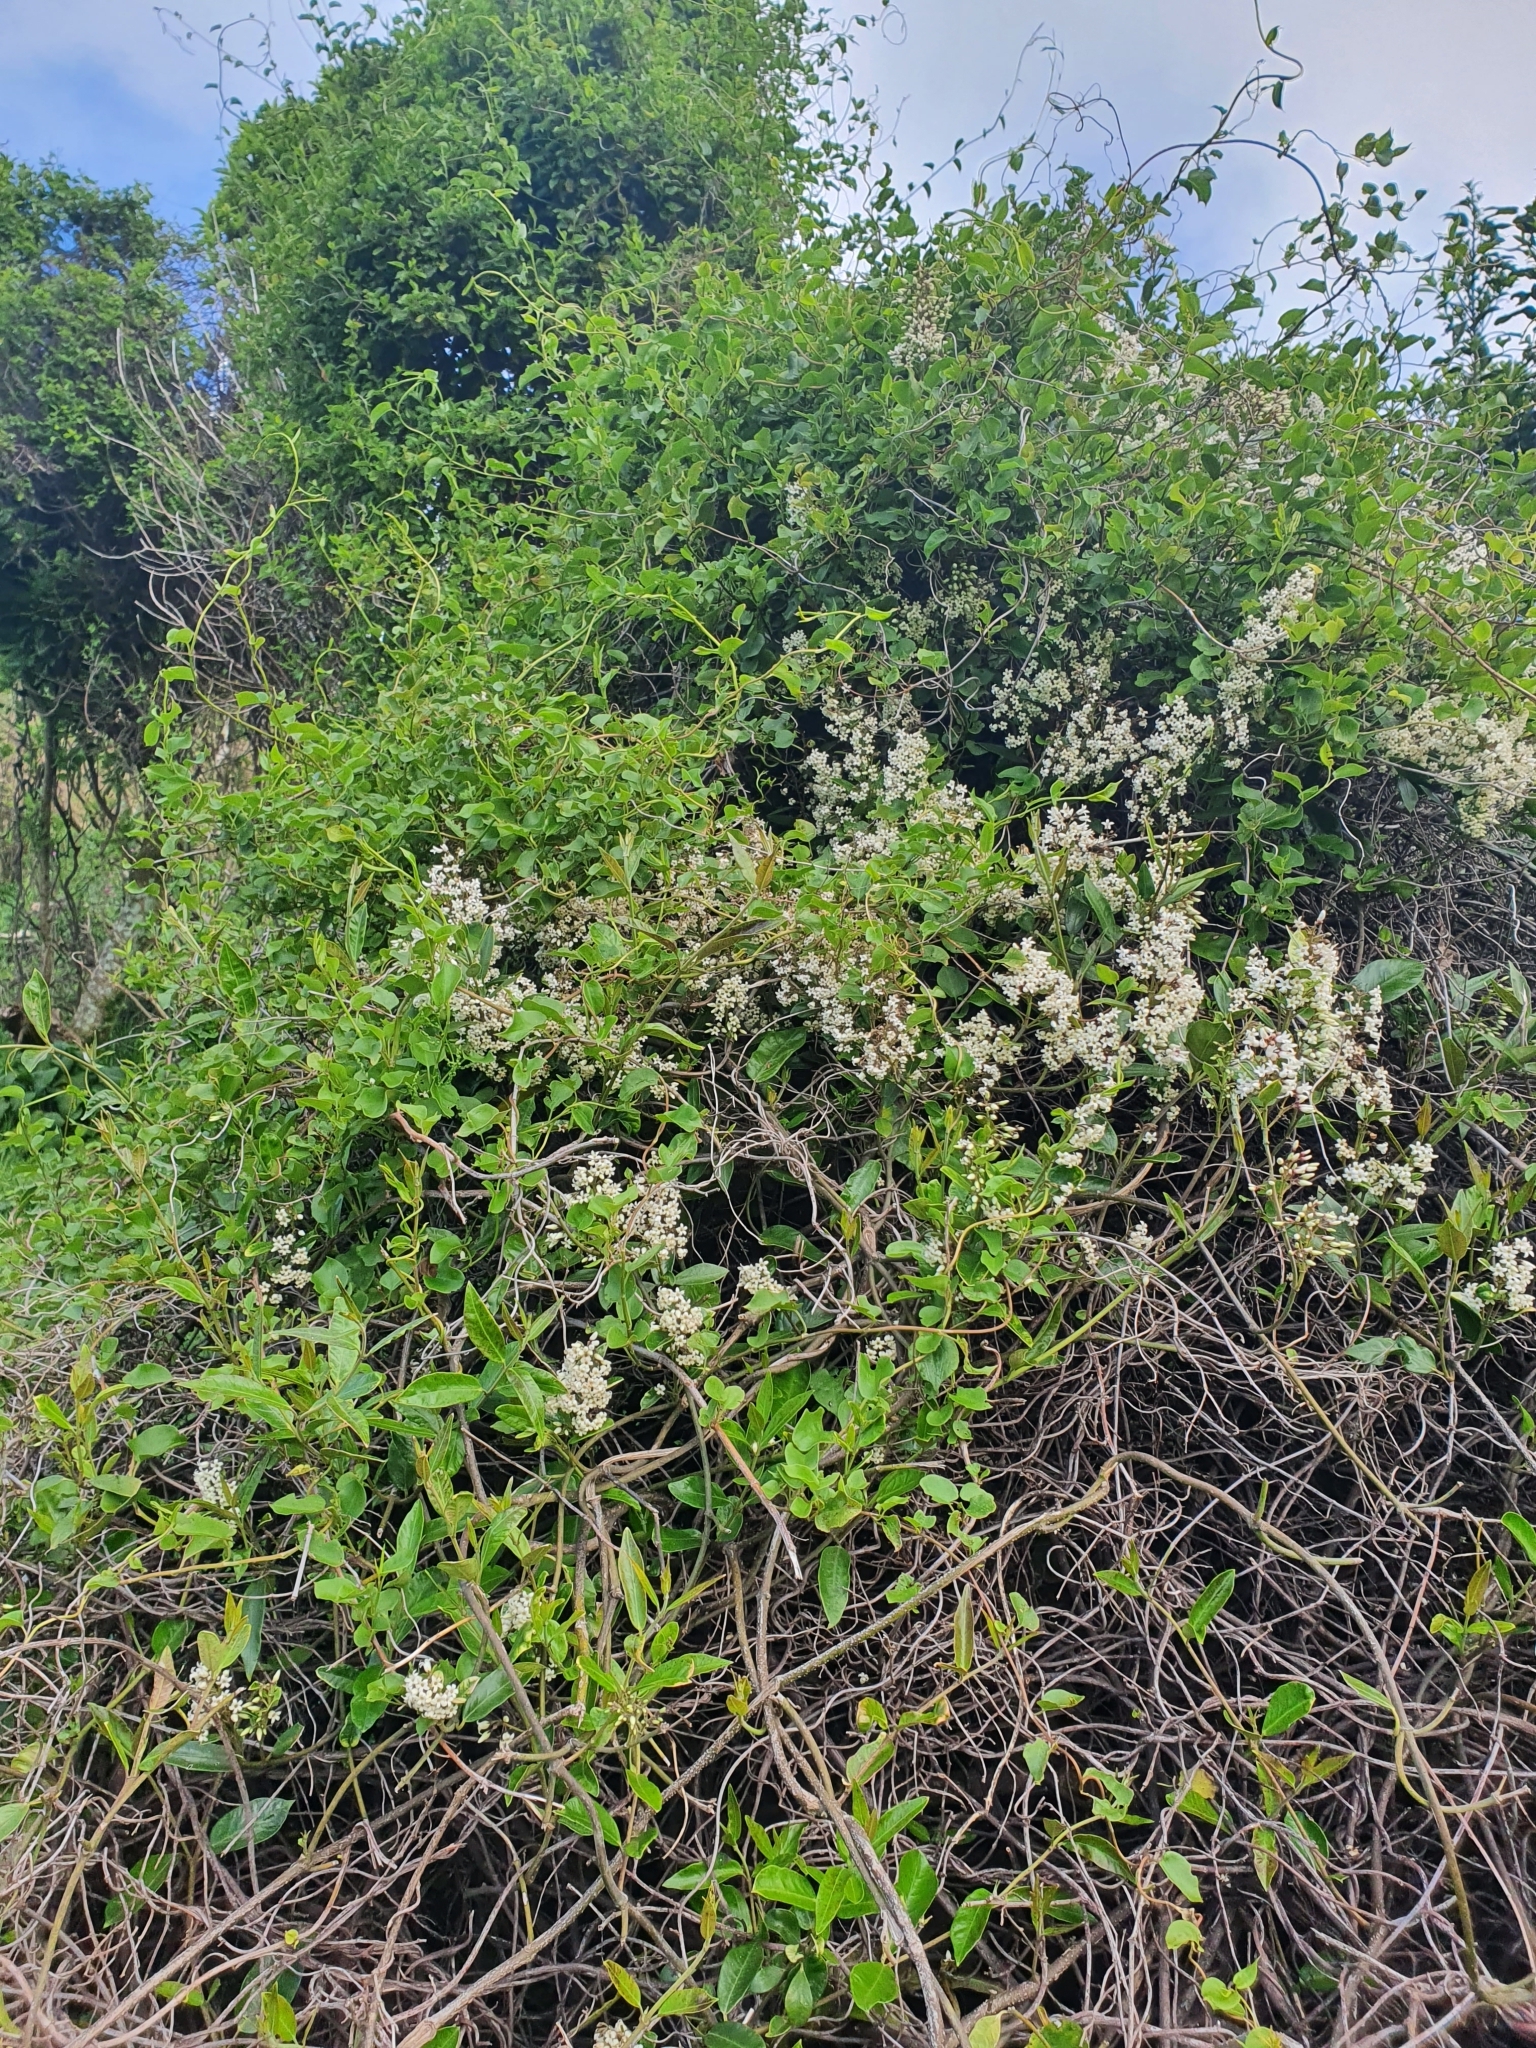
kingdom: Plantae
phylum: Tracheophyta
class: Magnoliopsida
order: Gentianales
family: Apocynaceae
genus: Parsonsia
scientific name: Parsonsia heterophylla
